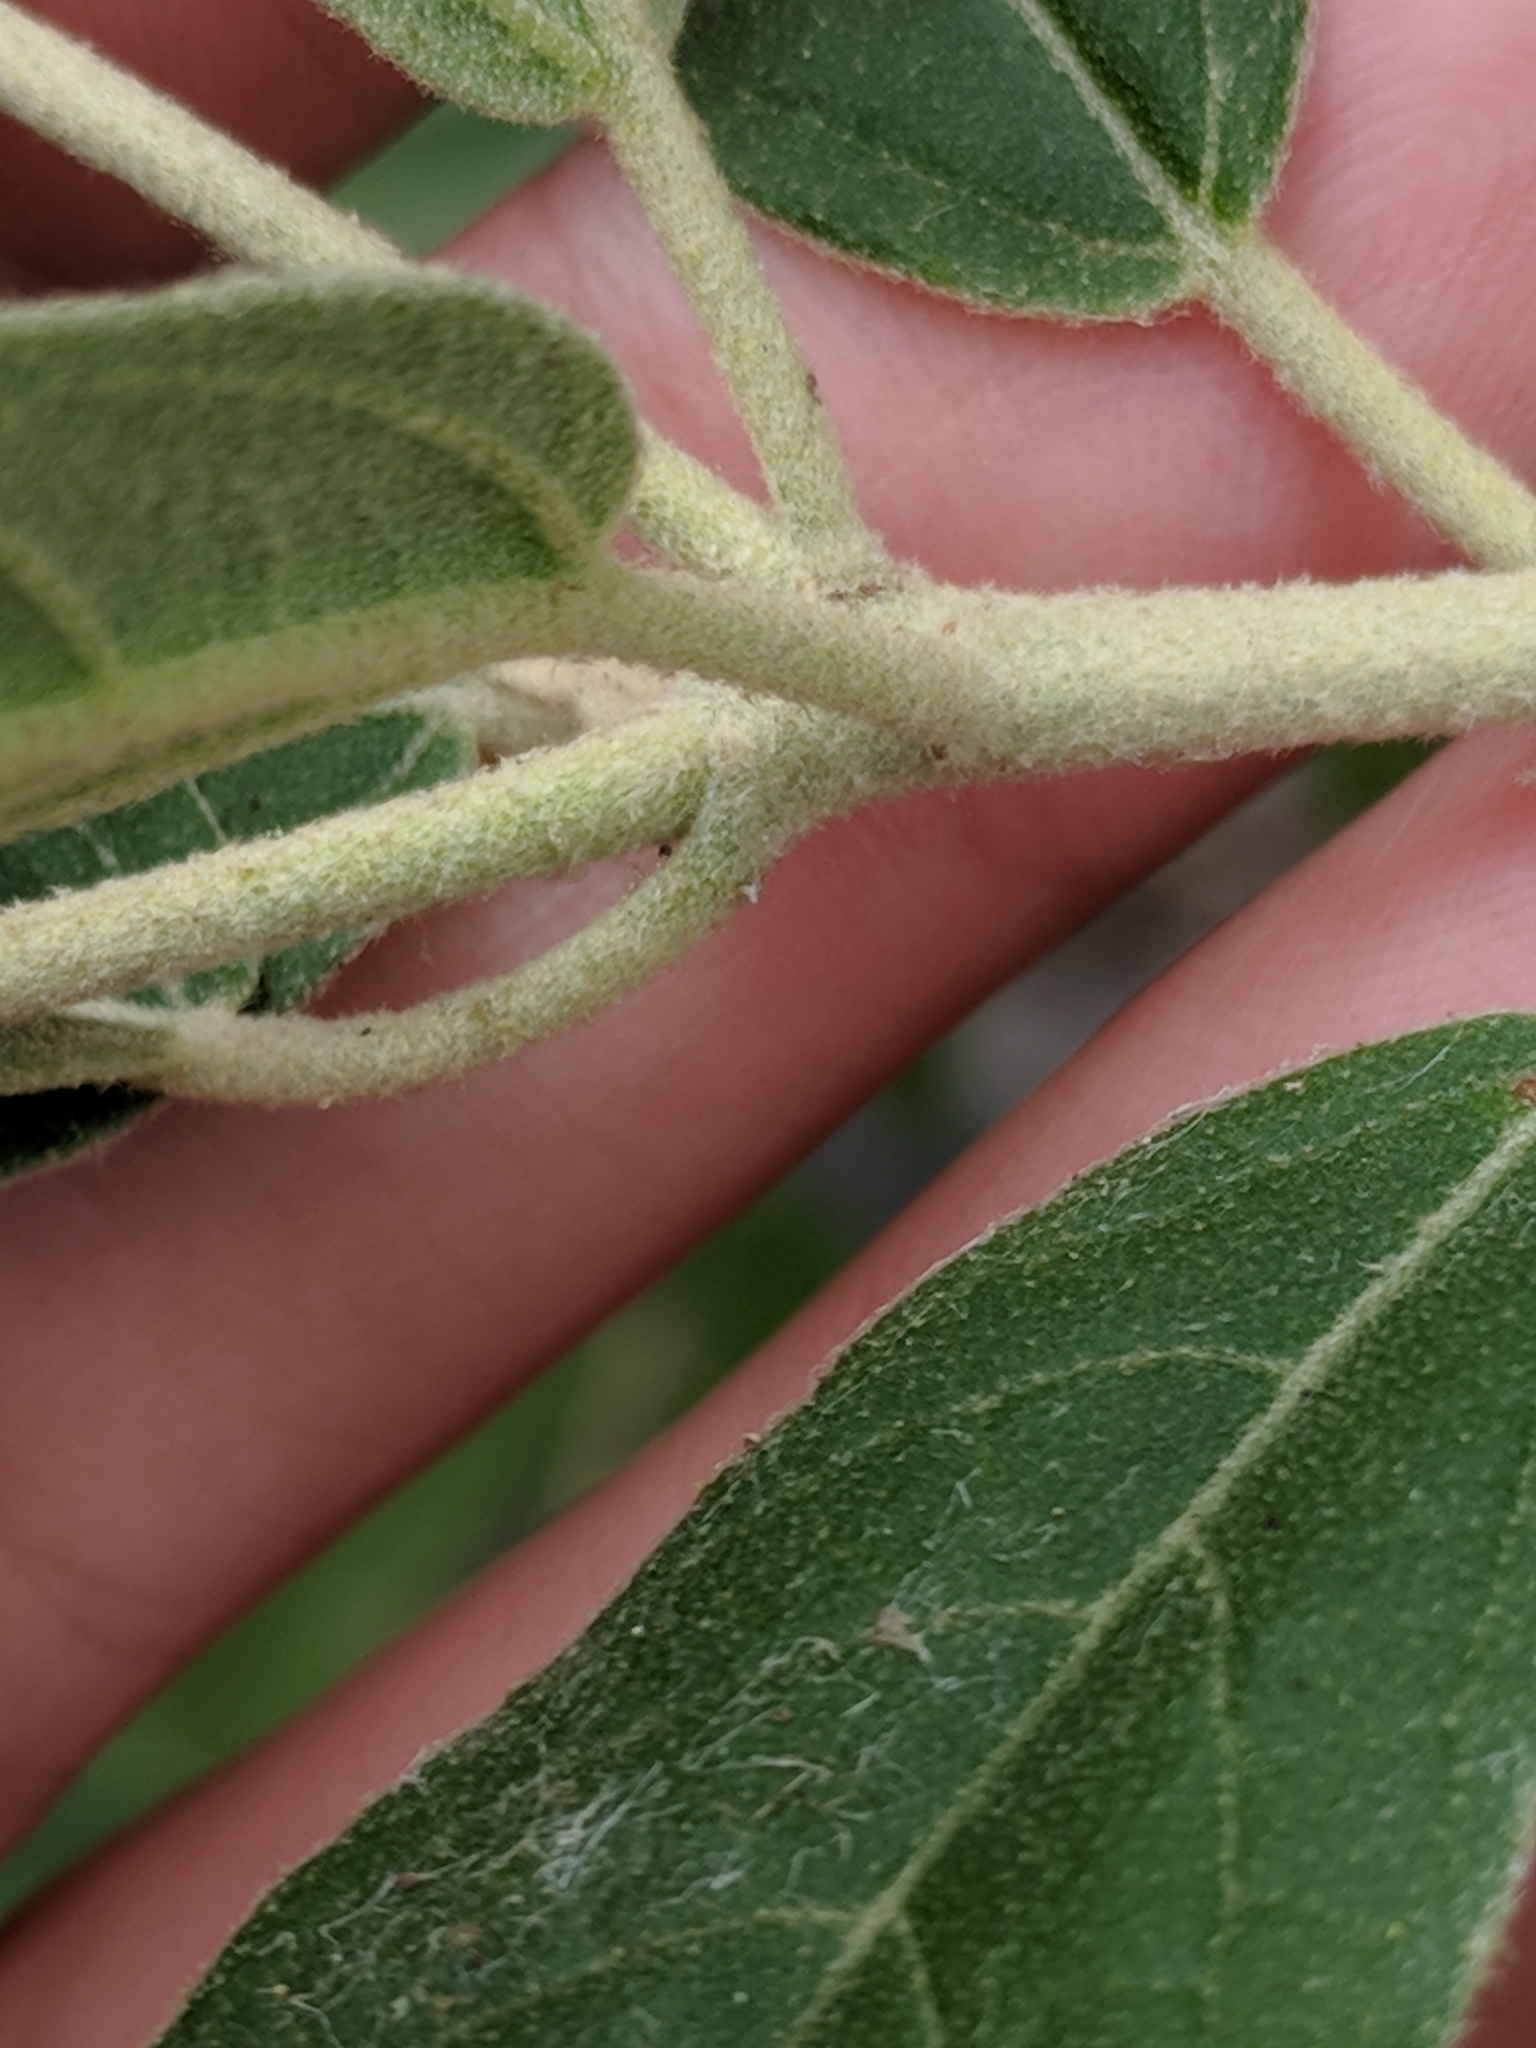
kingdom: Plantae
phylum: Tracheophyta
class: Magnoliopsida
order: Malpighiales
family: Euphorbiaceae
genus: Croton
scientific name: Croton incanus
